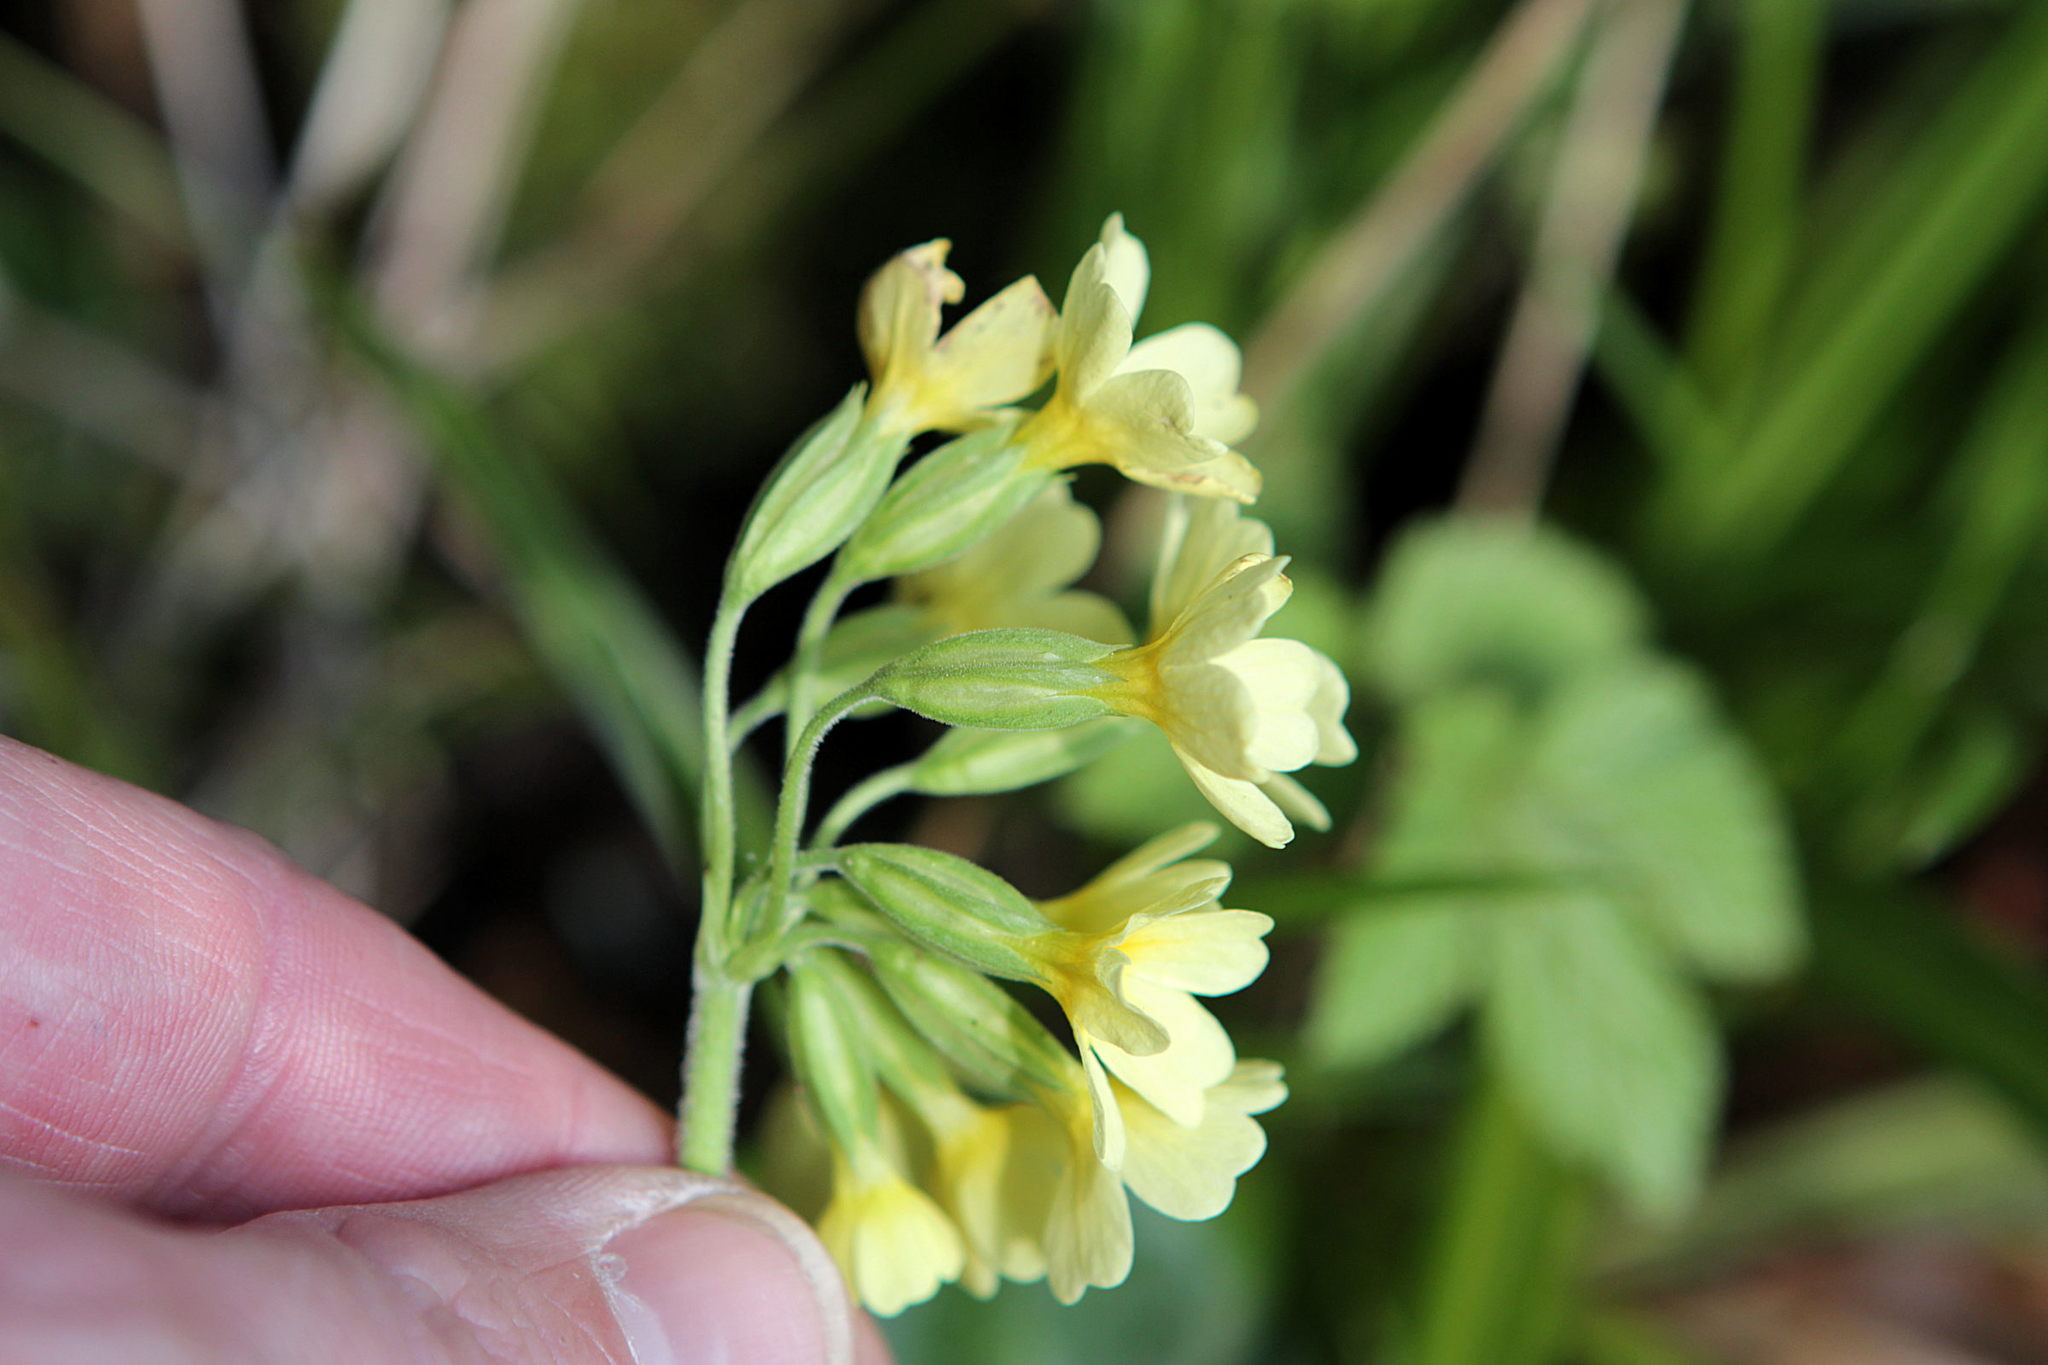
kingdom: Plantae
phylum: Tracheophyta
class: Magnoliopsida
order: Ericales
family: Primulaceae
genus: Primula
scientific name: Primula elatior
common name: Oxlip
